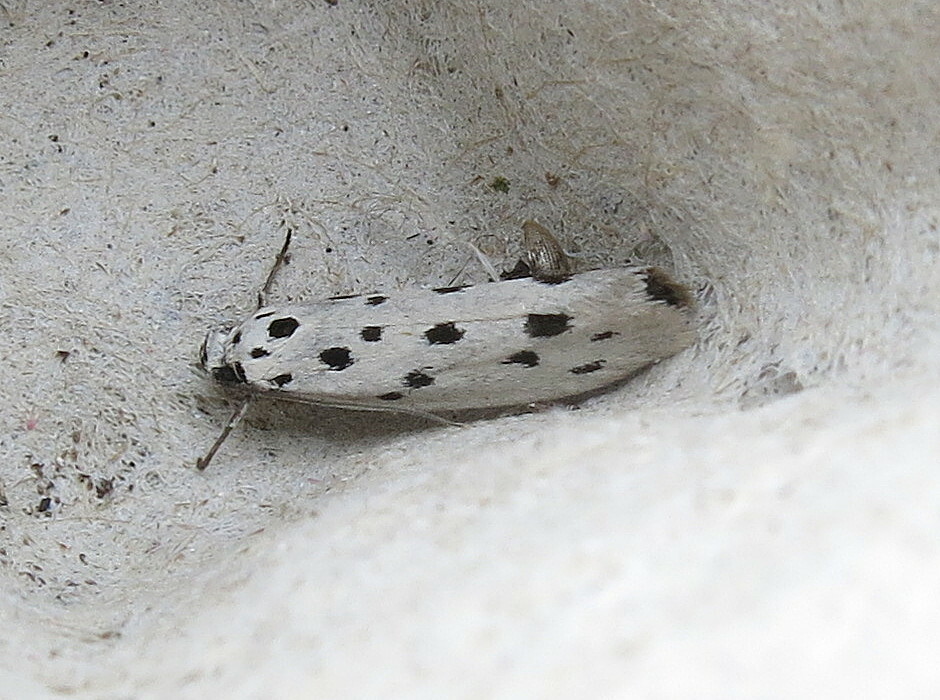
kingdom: Animalia
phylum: Arthropoda
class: Insecta
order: Lepidoptera
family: Ethmiidae
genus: Ethmia
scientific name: Ethmia dodecea
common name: Dotted ermel
